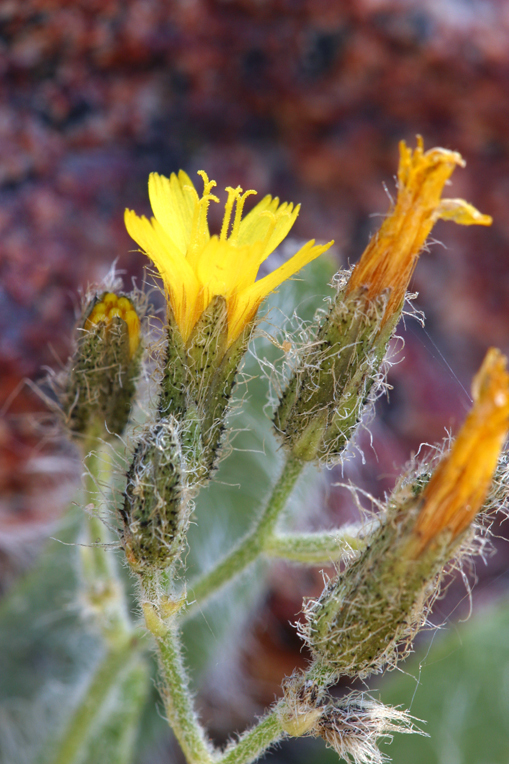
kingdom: Plantae
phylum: Tracheophyta
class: Magnoliopsida
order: Asterales
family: Asteraceae
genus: Hieracium
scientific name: Hieracium horridum
